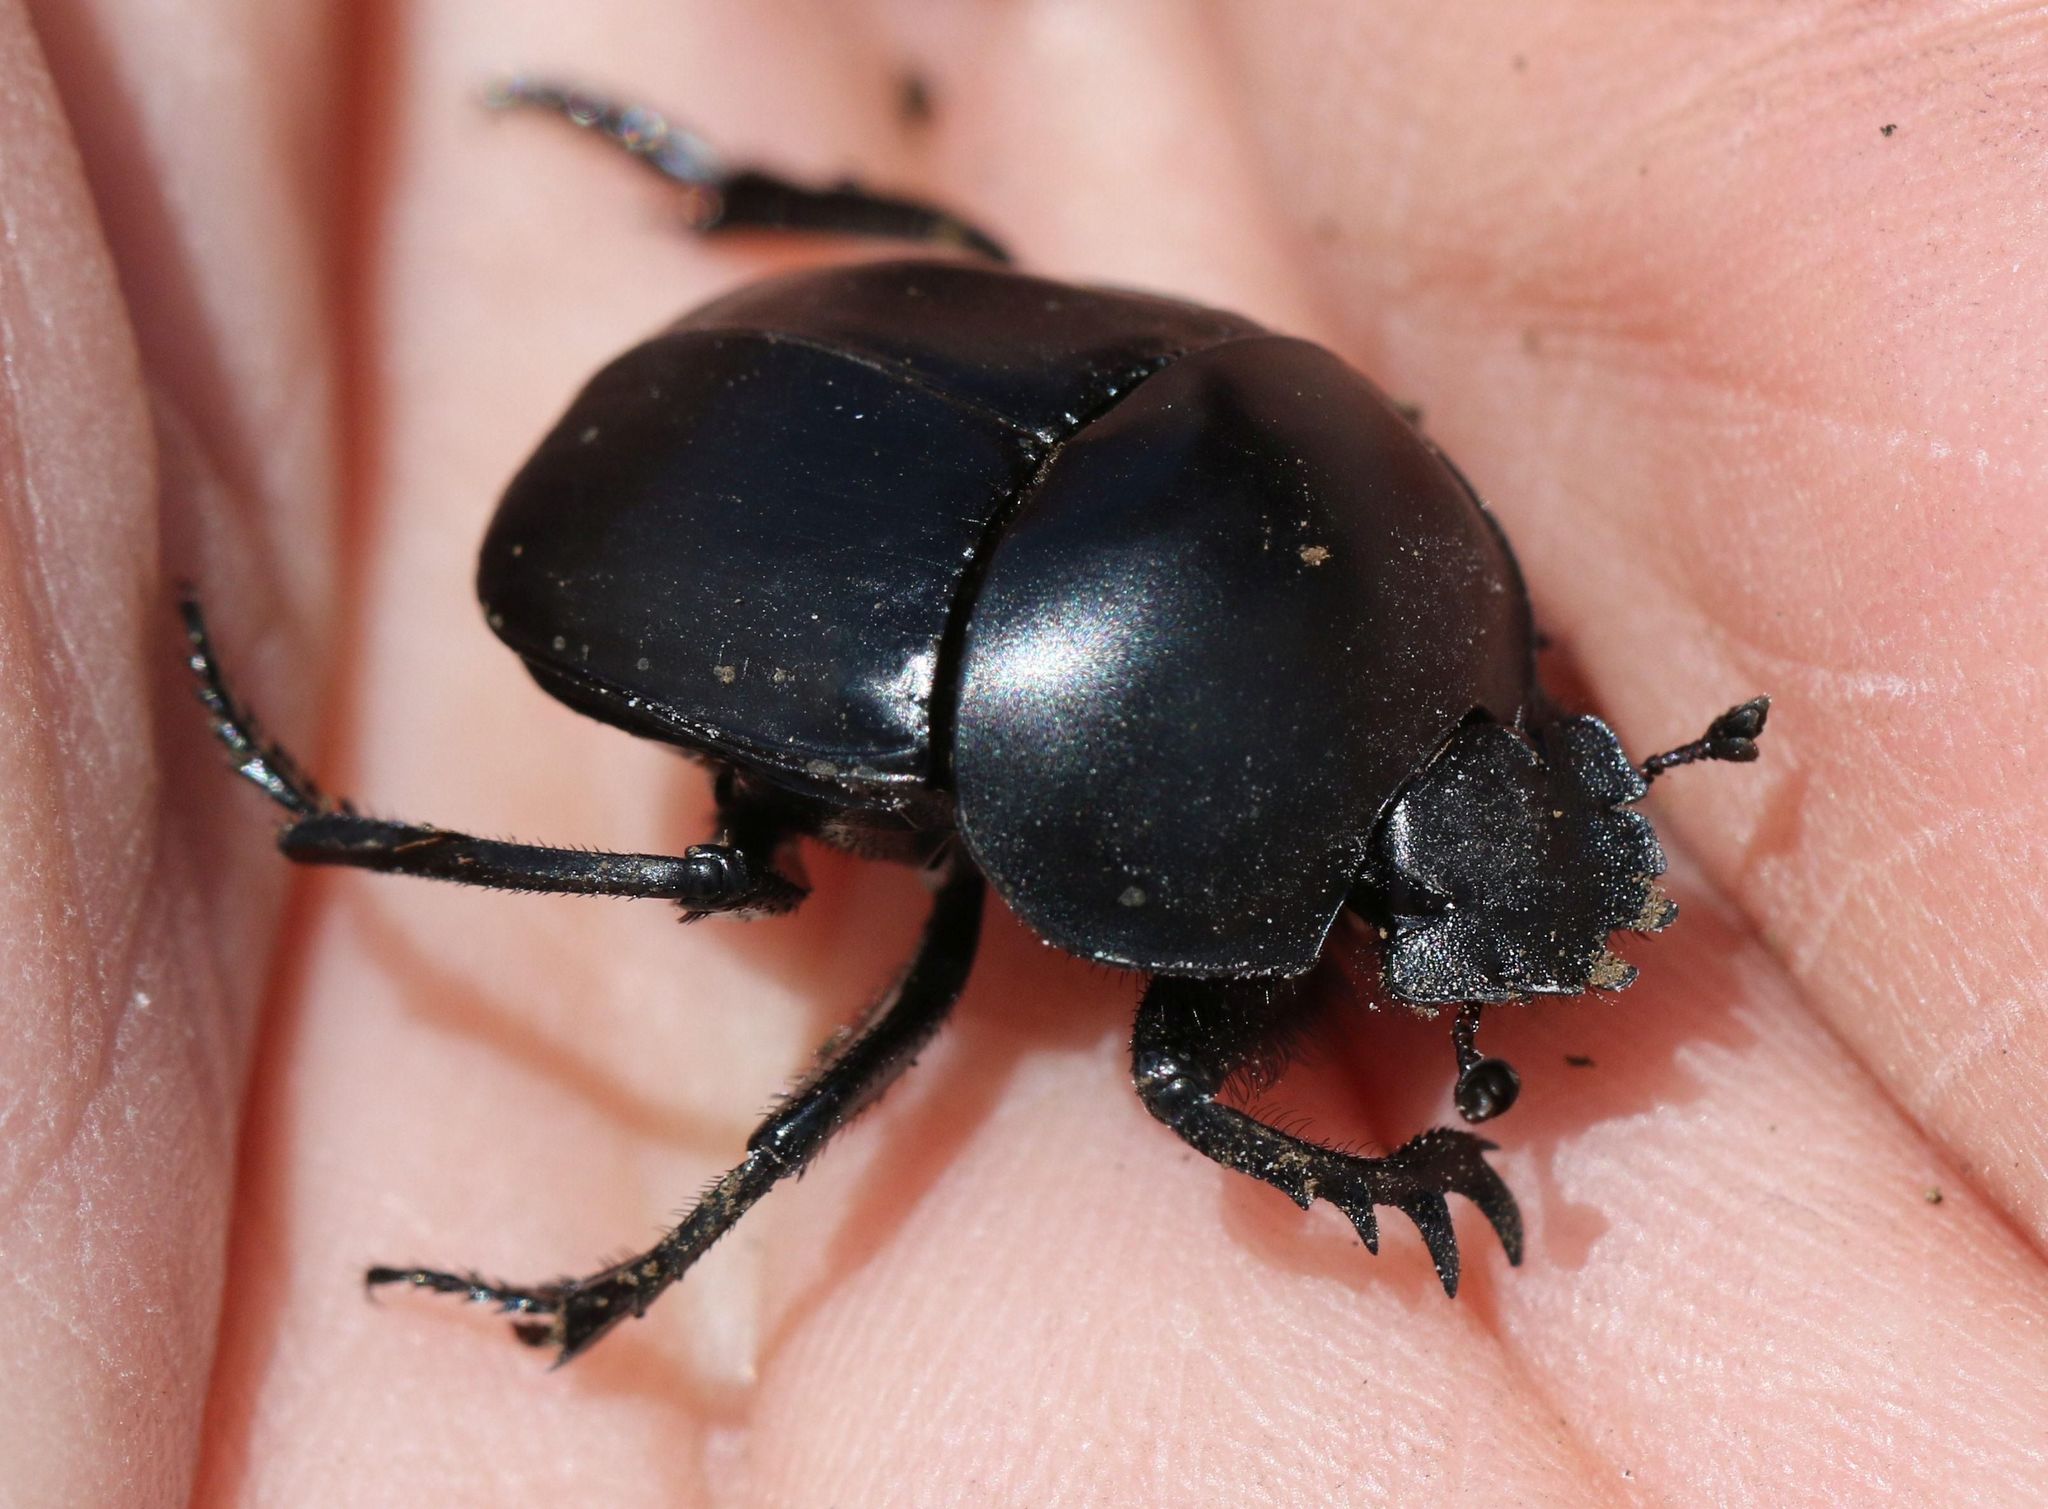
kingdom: Animalia
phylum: Arthropoda
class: Insecta
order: Coleoptera
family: Scarabaeidae
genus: Sceliages
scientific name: Sceliages difficilis
